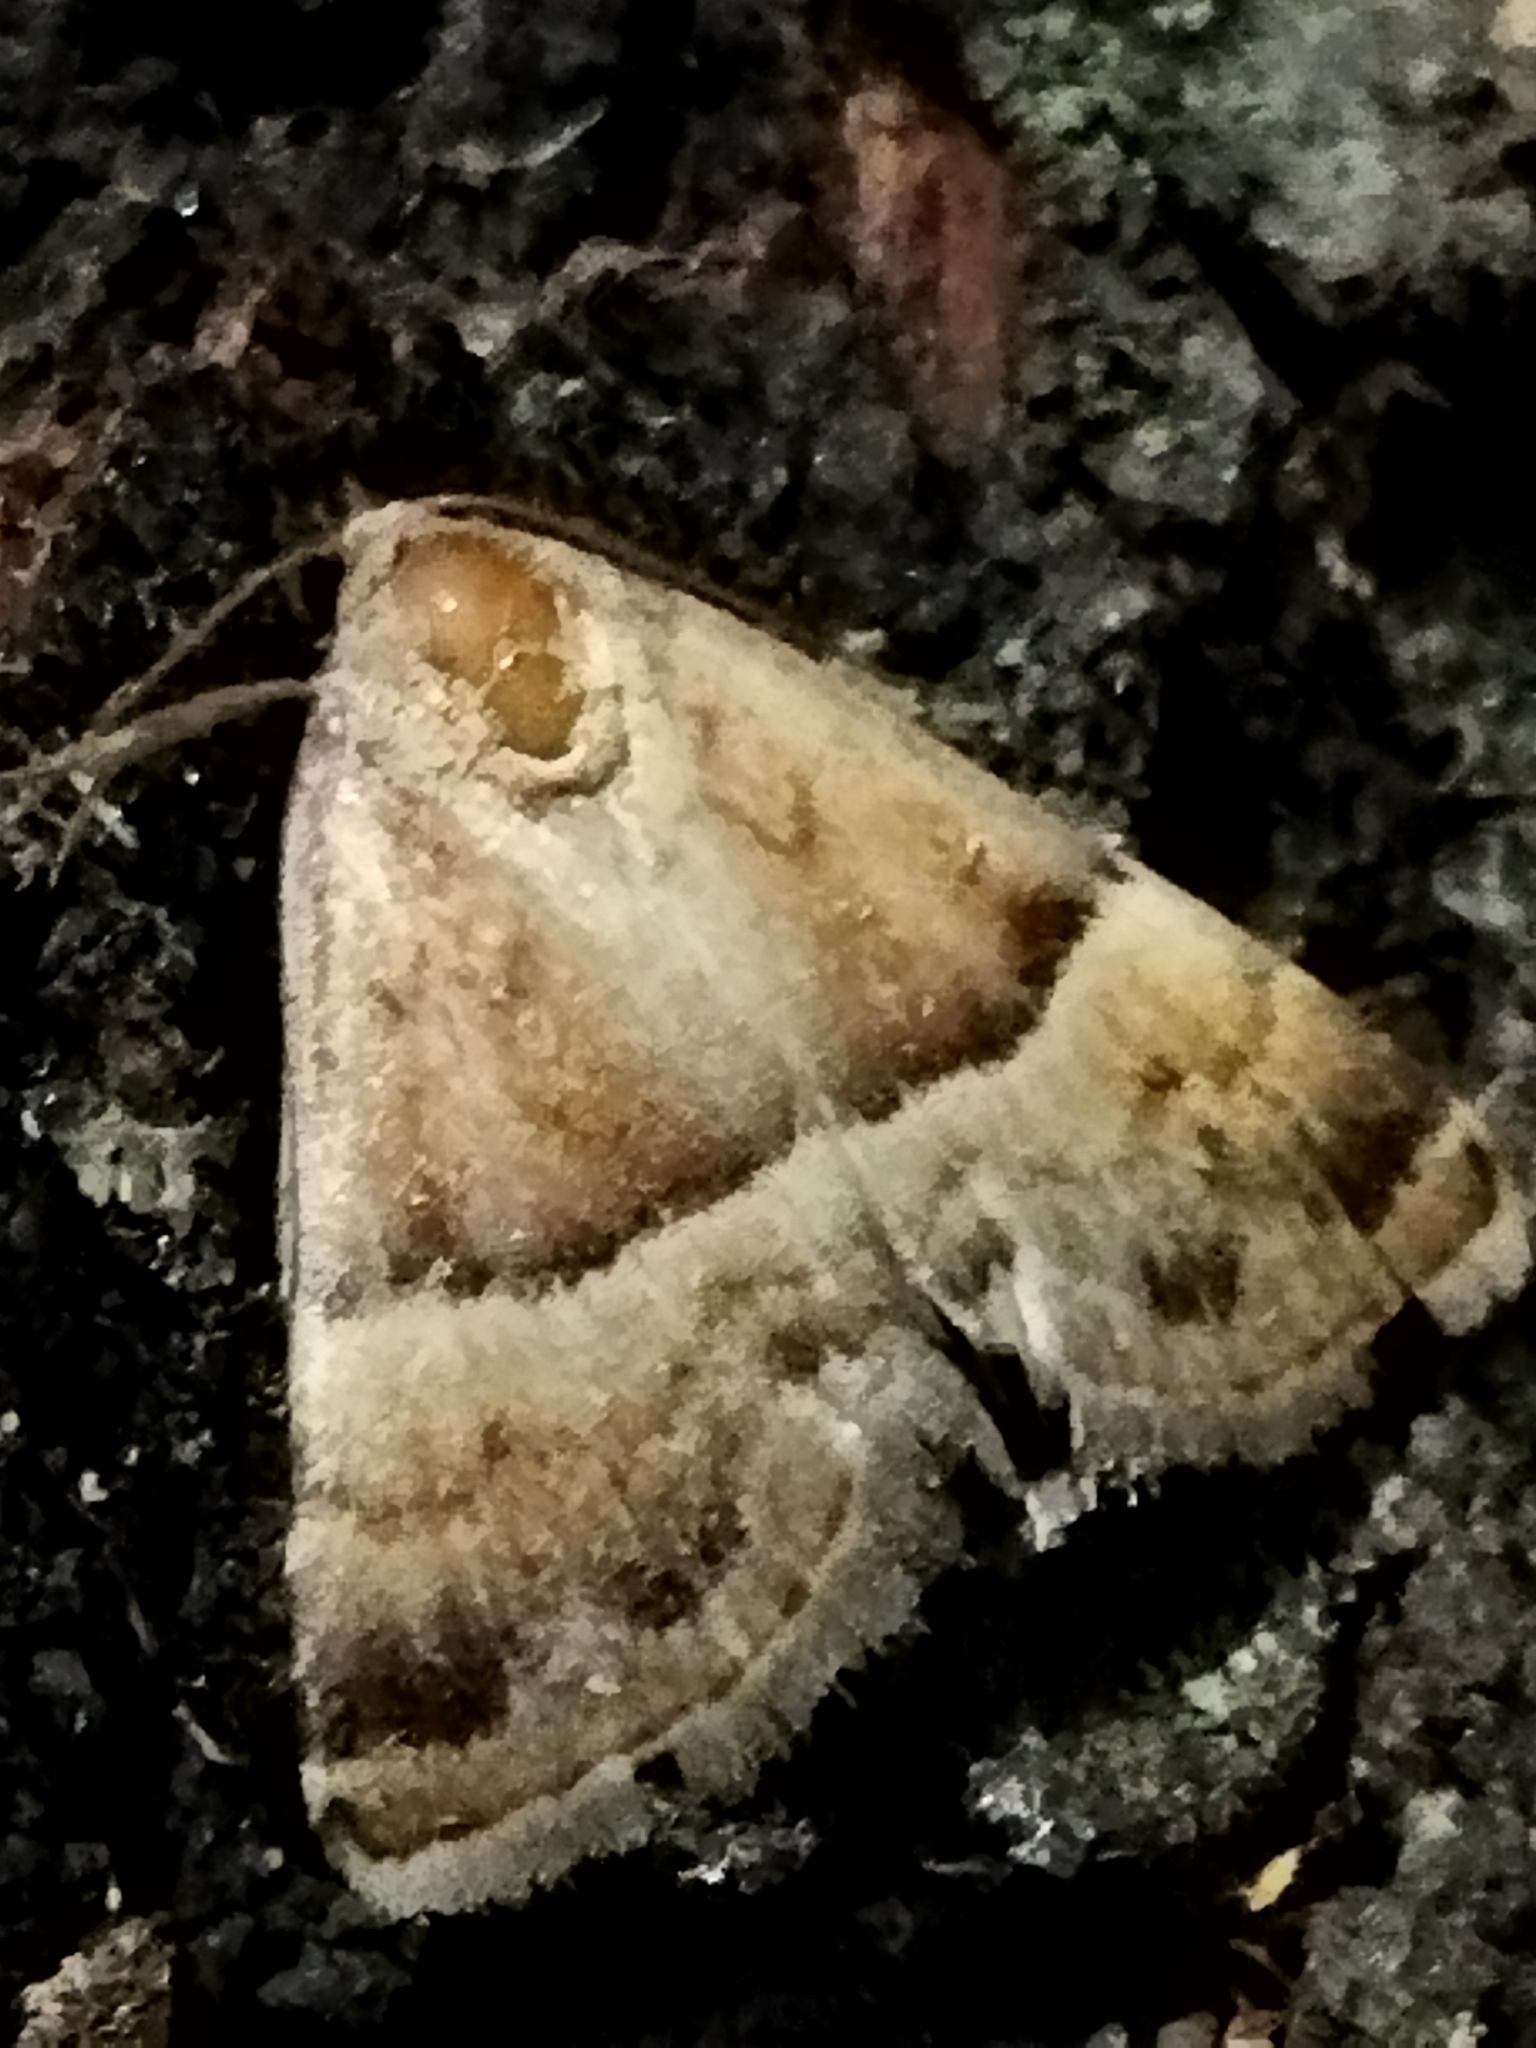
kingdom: Animalia
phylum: Arthropoda
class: Insecta
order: Lepidoptera
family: Noctuidae
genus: Odice
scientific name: Odice suava
